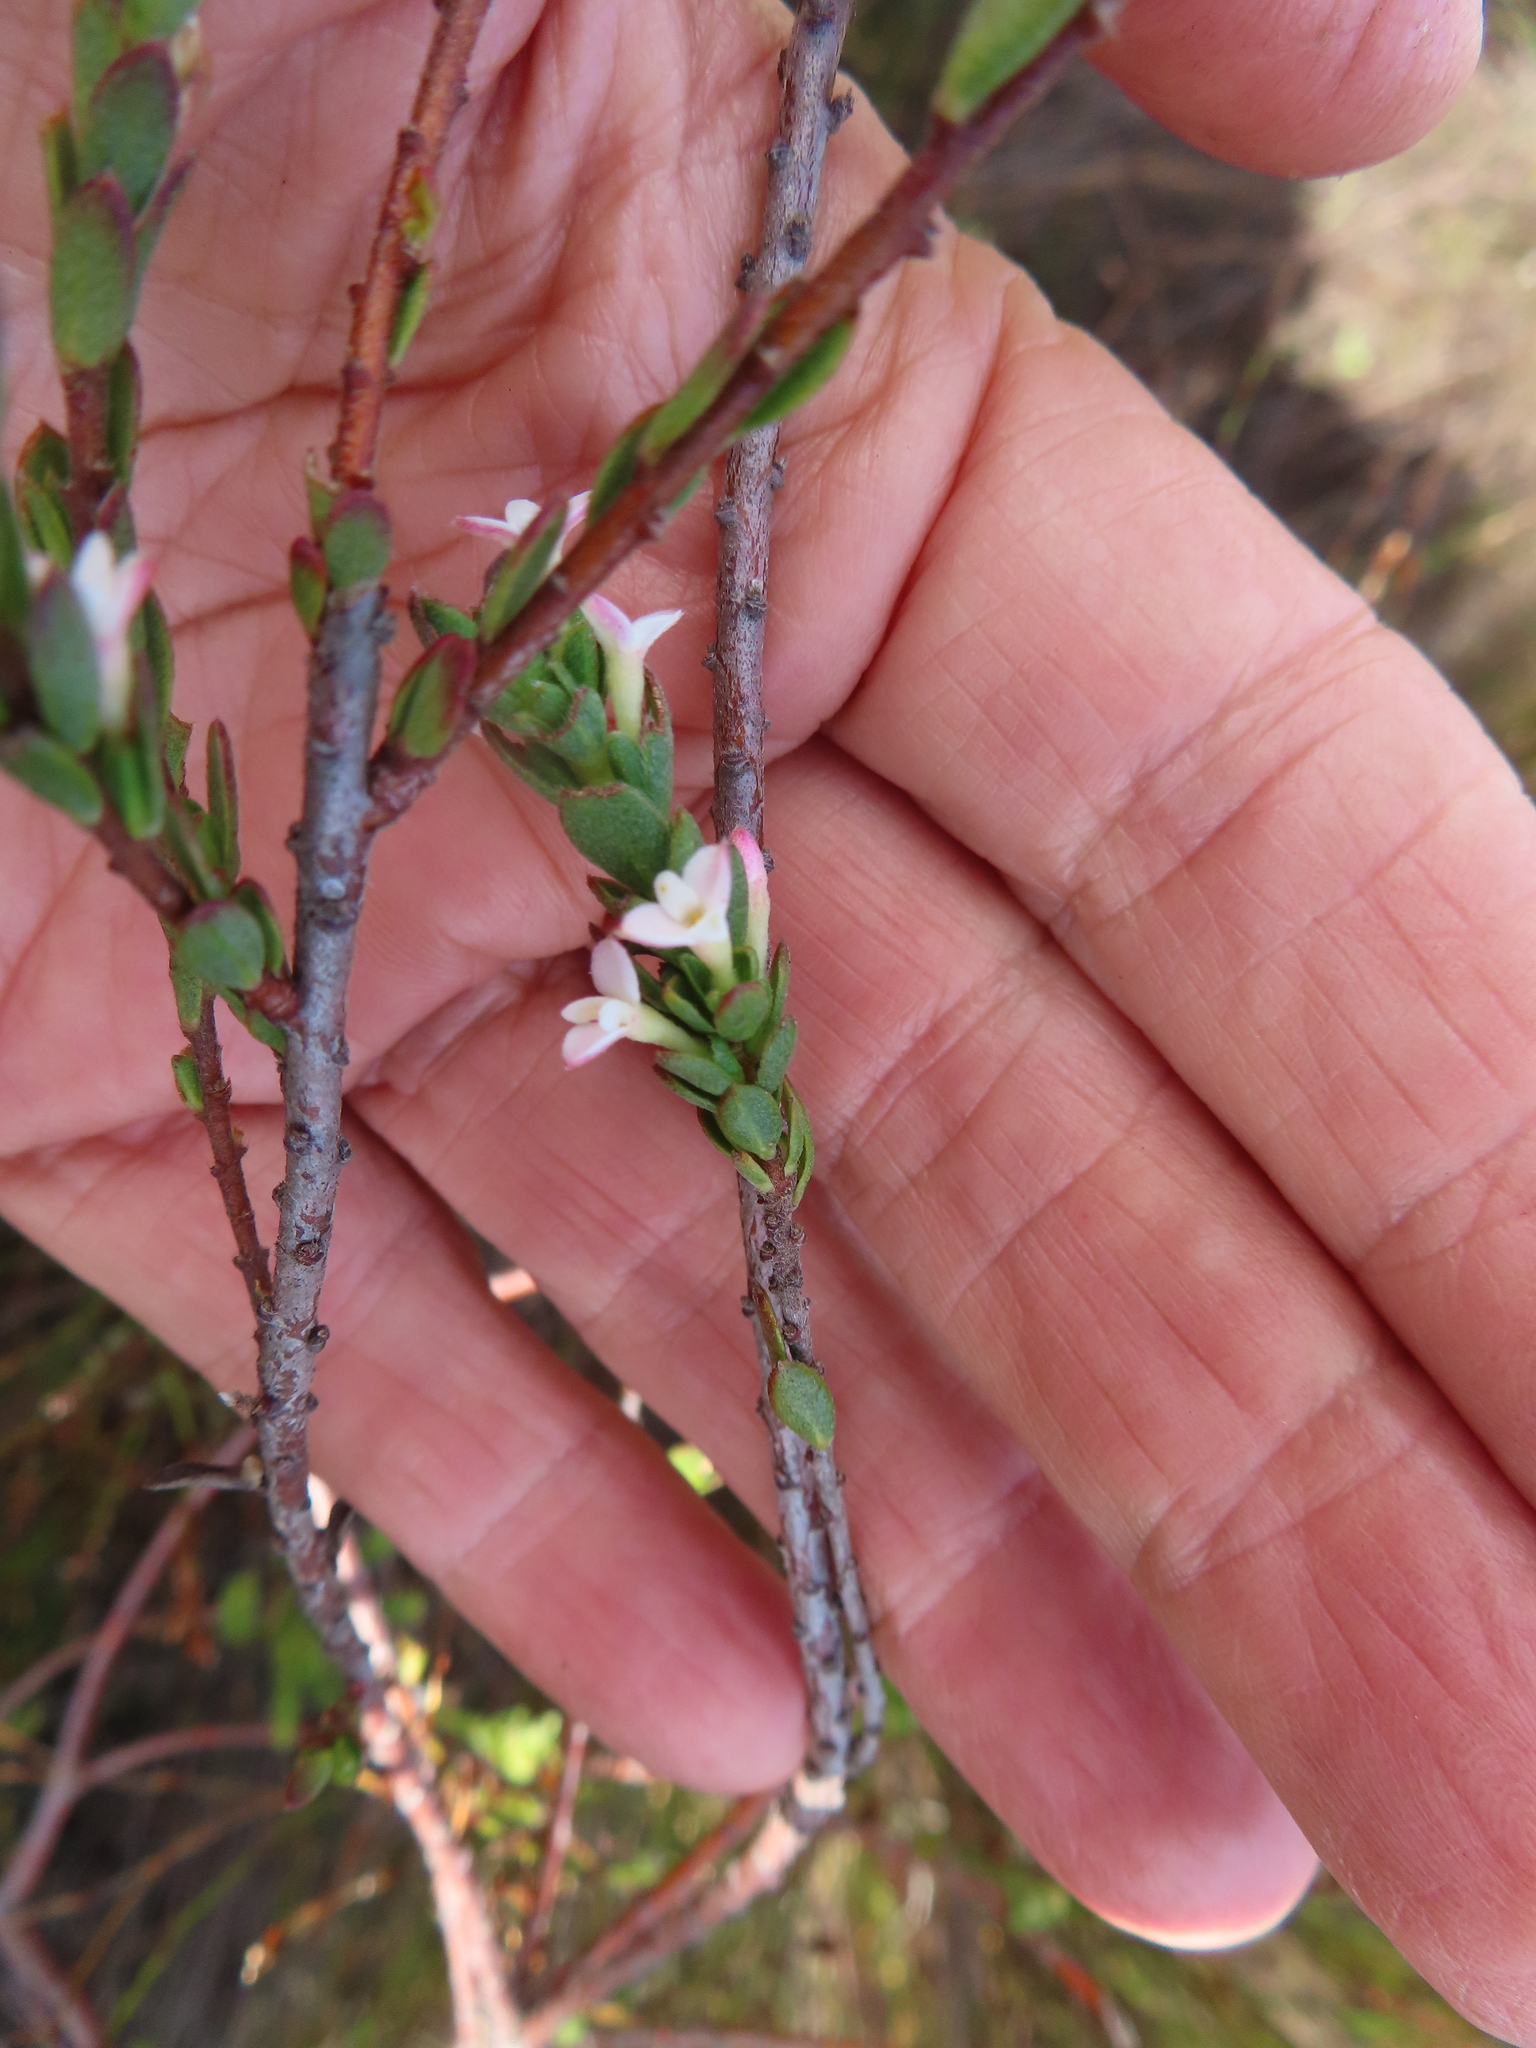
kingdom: Plantae
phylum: Tracheophyta
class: Magnoliopsida
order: Malvales
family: Thymelaeaceae
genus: Gnidia
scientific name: Gnidia spicata
